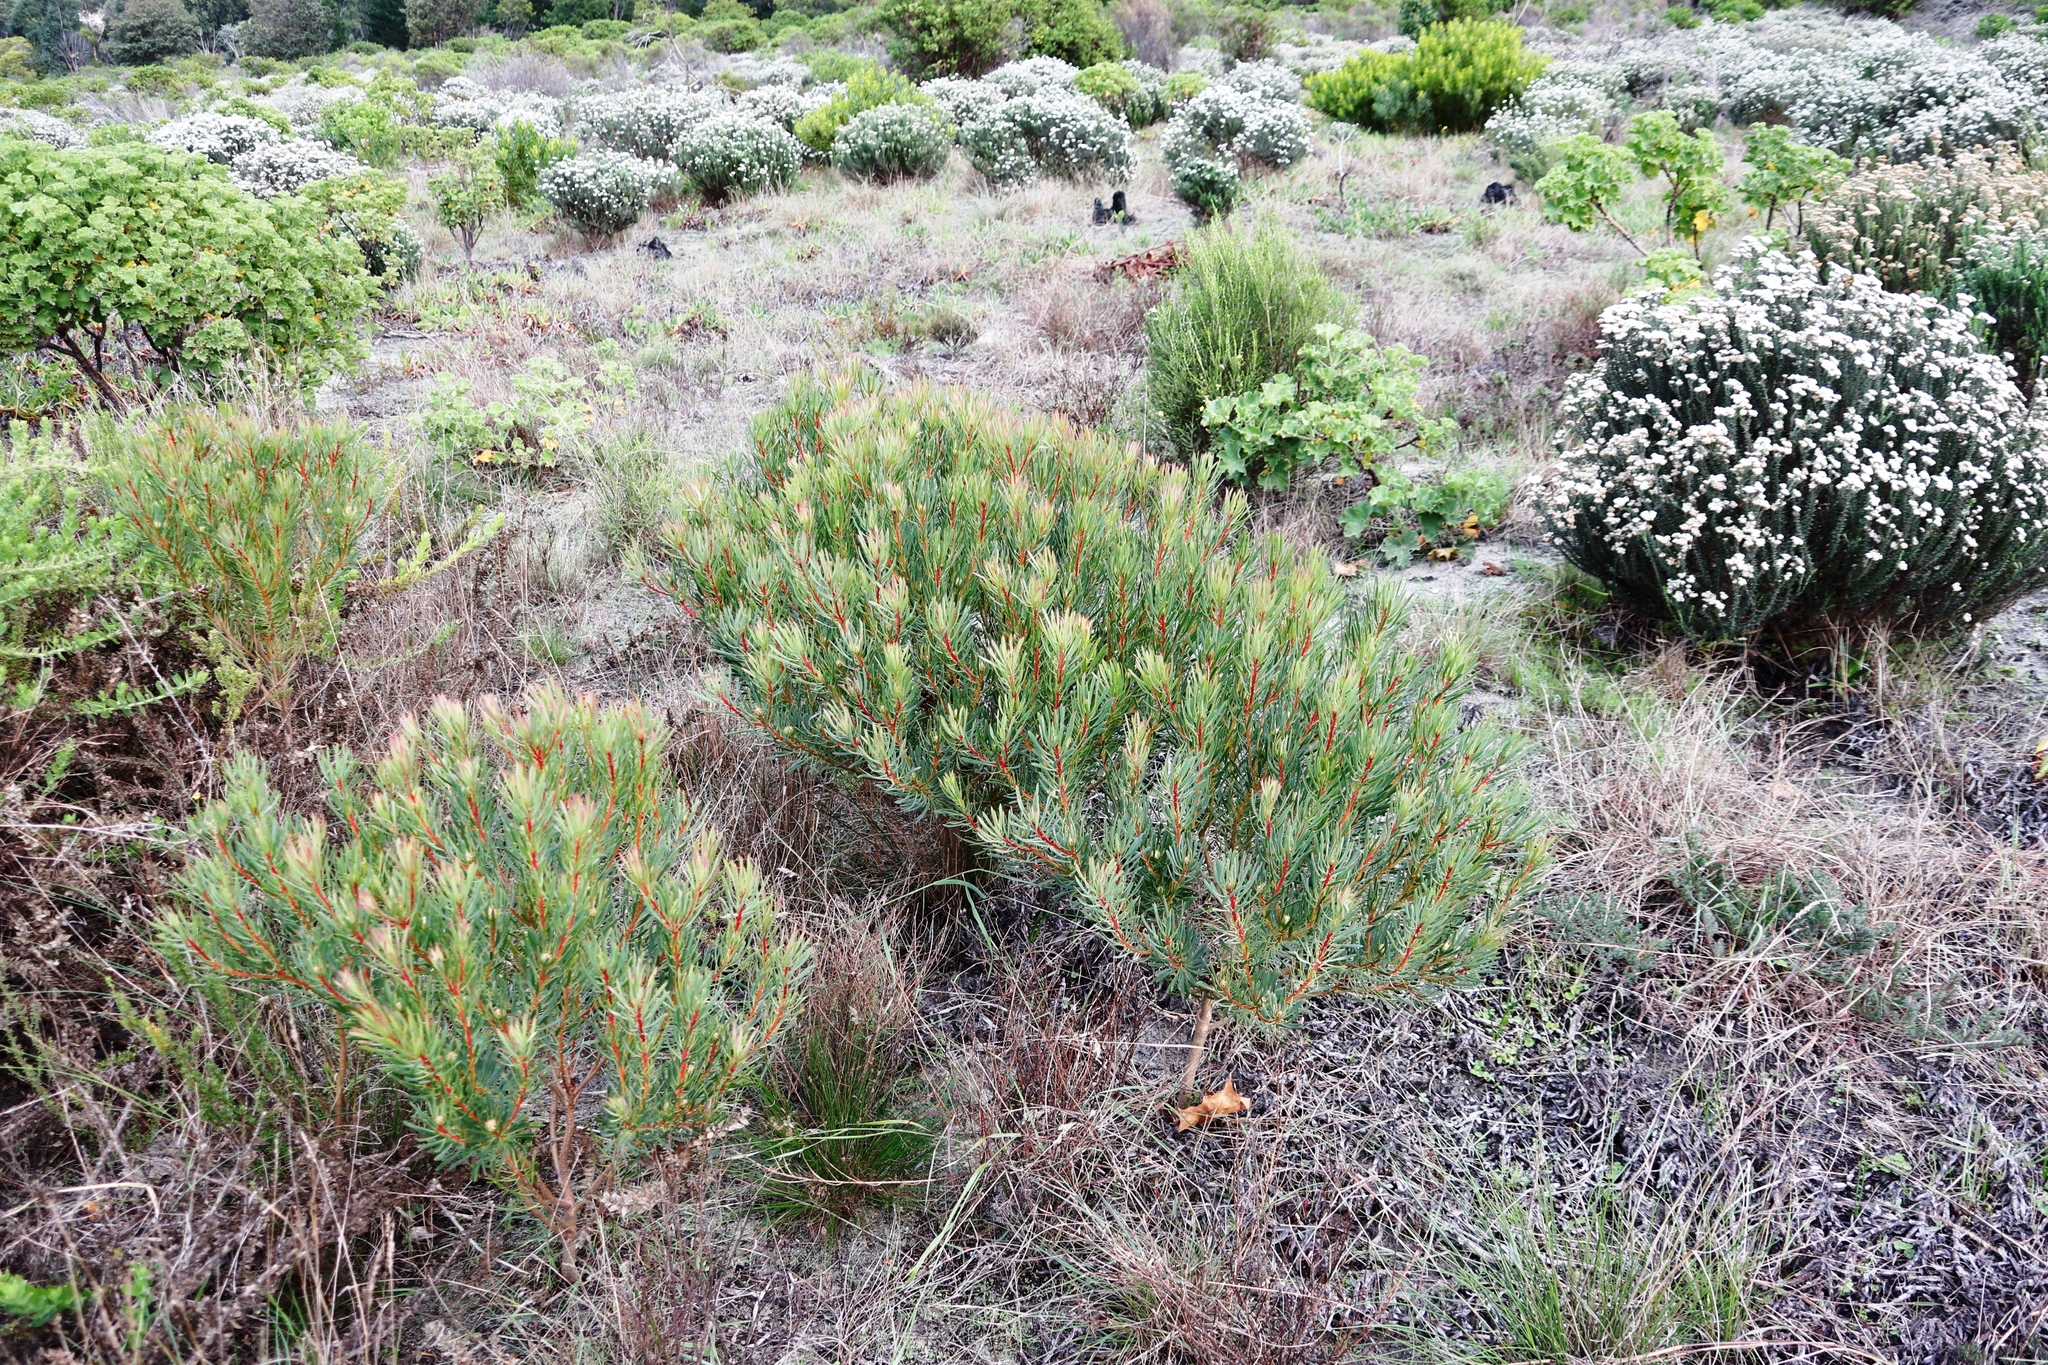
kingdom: Plantae
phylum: Tracheophyta
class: Magnoliopsida
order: Proteales
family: Proteaceae
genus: Protea
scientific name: Protea scolymocephala
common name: Thistle sugarbush
